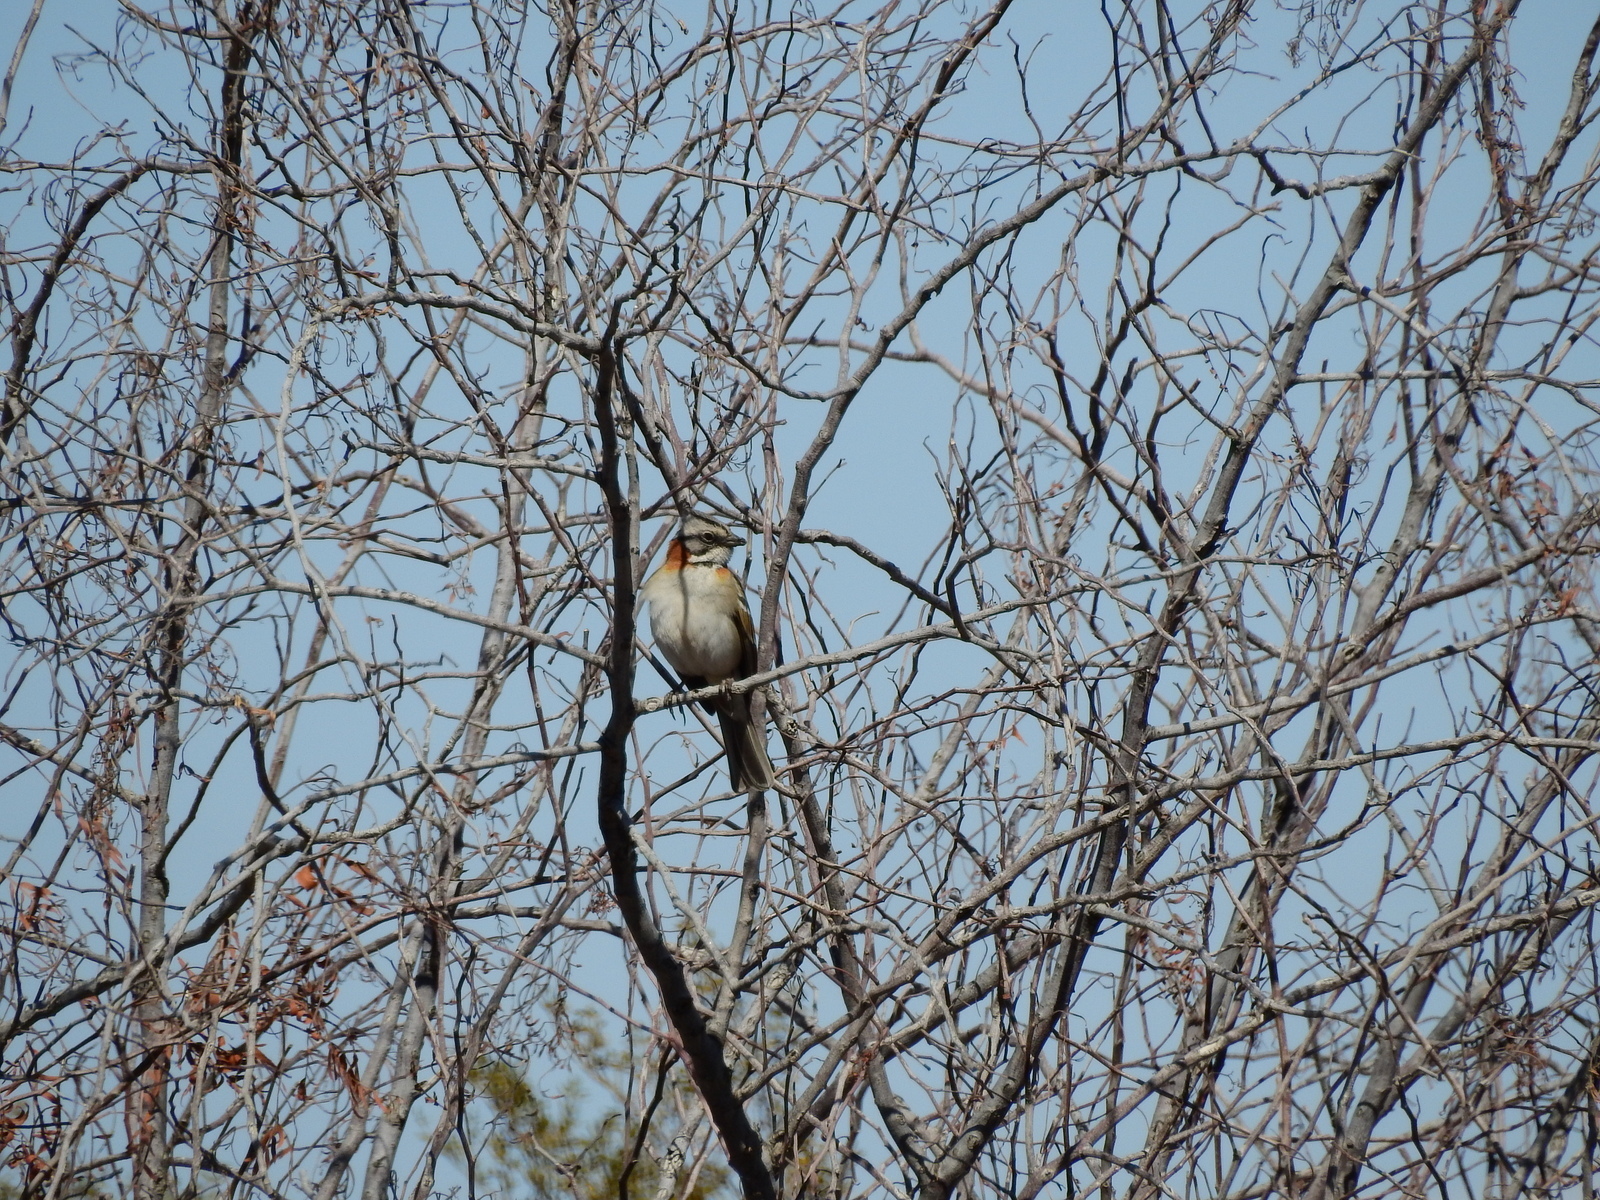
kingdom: Animalia
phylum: Chordata
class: Aves
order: Passeriformes
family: Passerellidae
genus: Zonotrichia
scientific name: Zonotrichia capensis
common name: Rufous-collared sparrow
